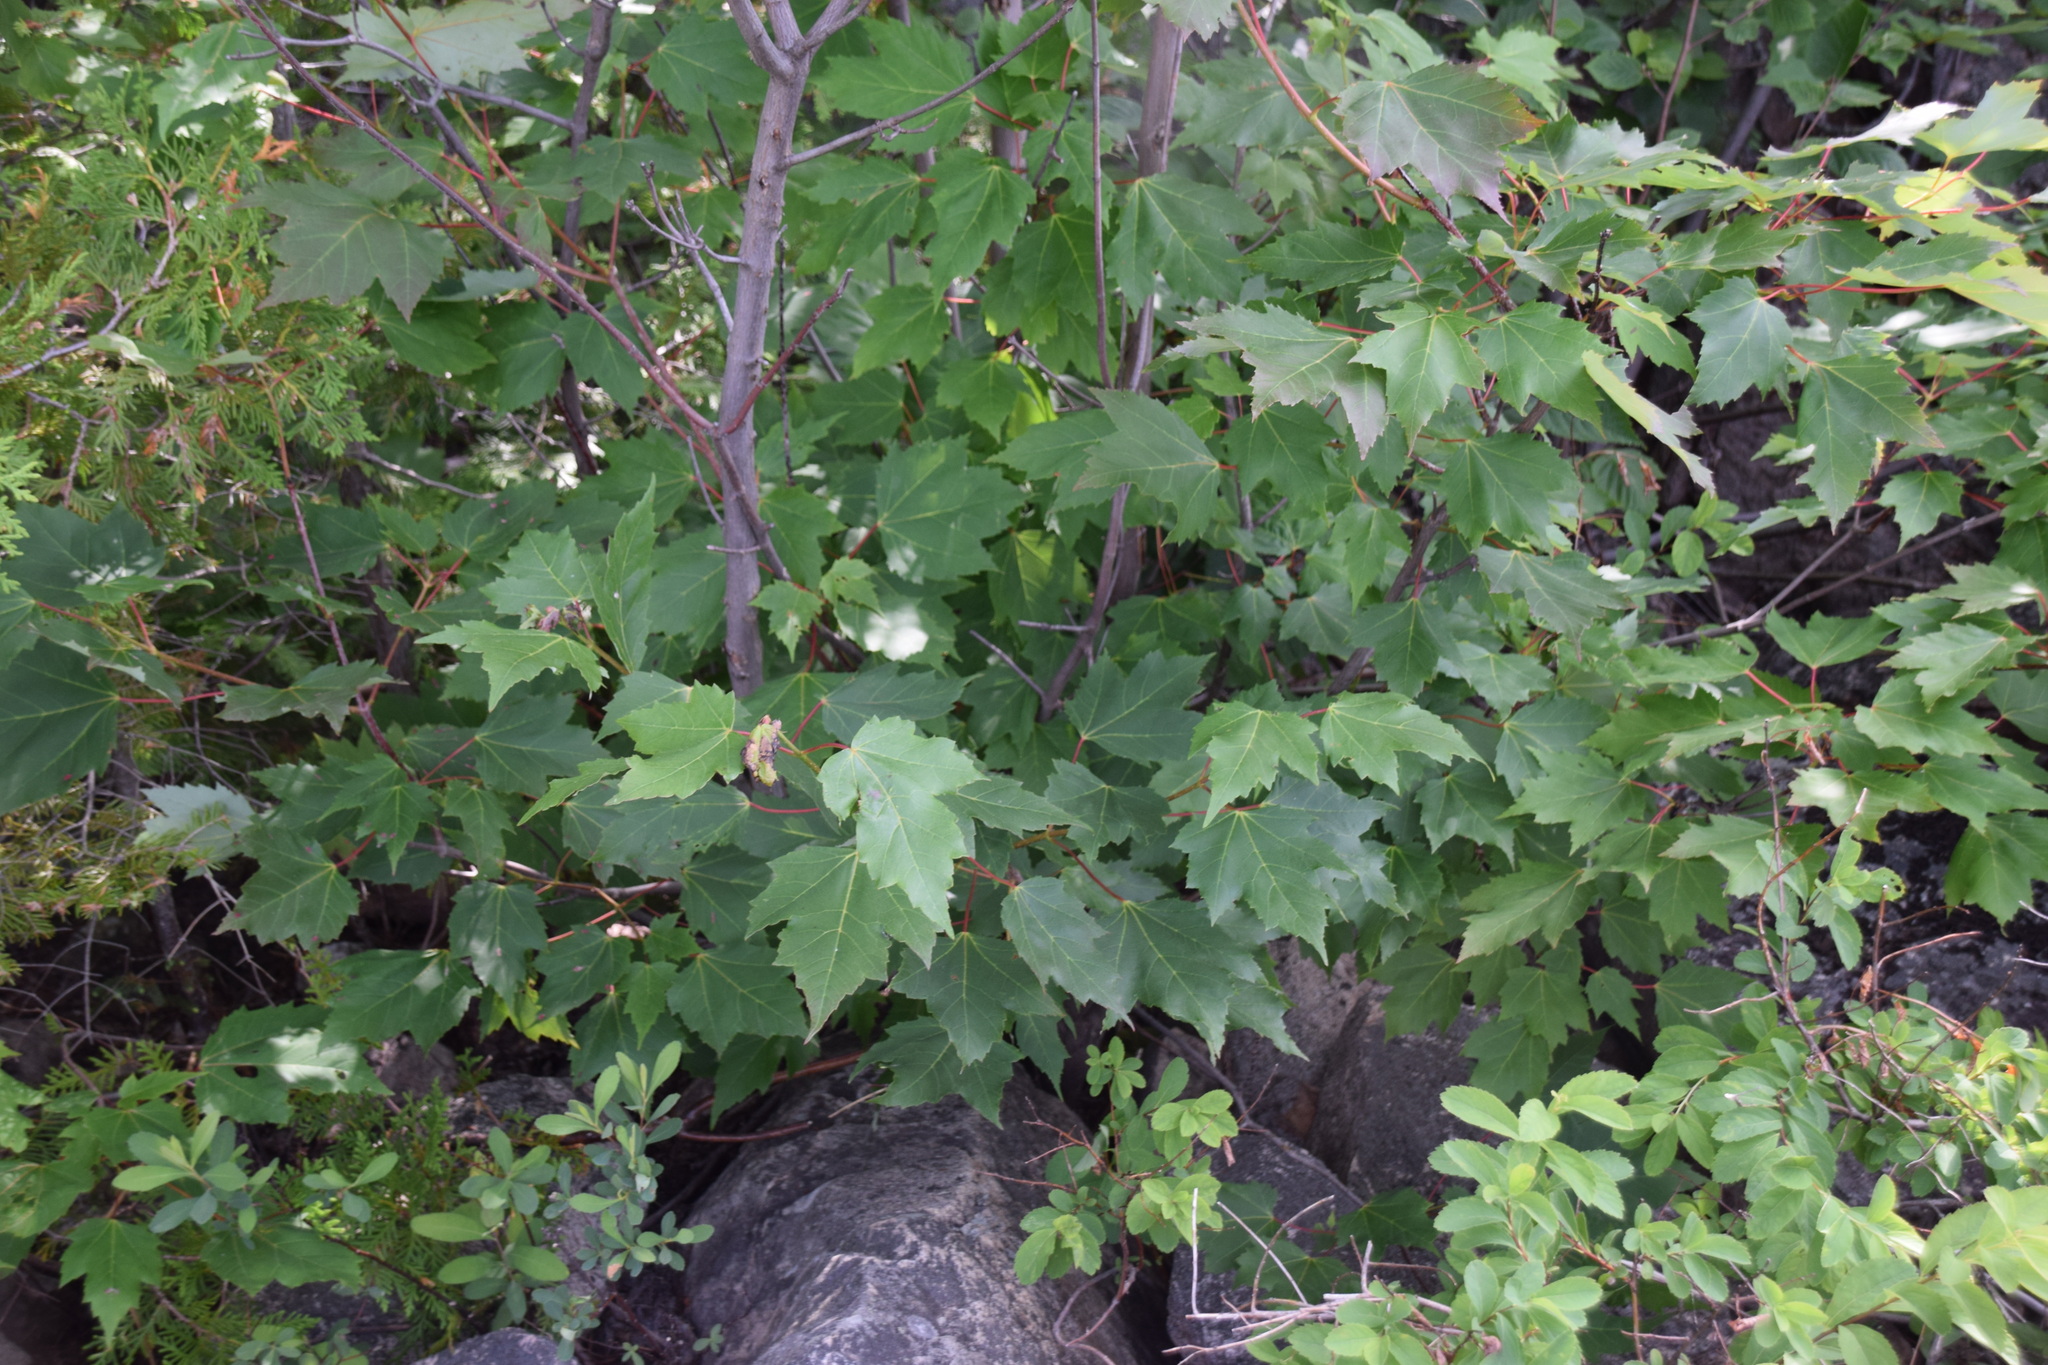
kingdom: Plantae
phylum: Tracheophyta
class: Magnoliopsida
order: Sapindales
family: Sapindaceae
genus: Acer
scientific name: Acer rubrum
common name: Red maple
